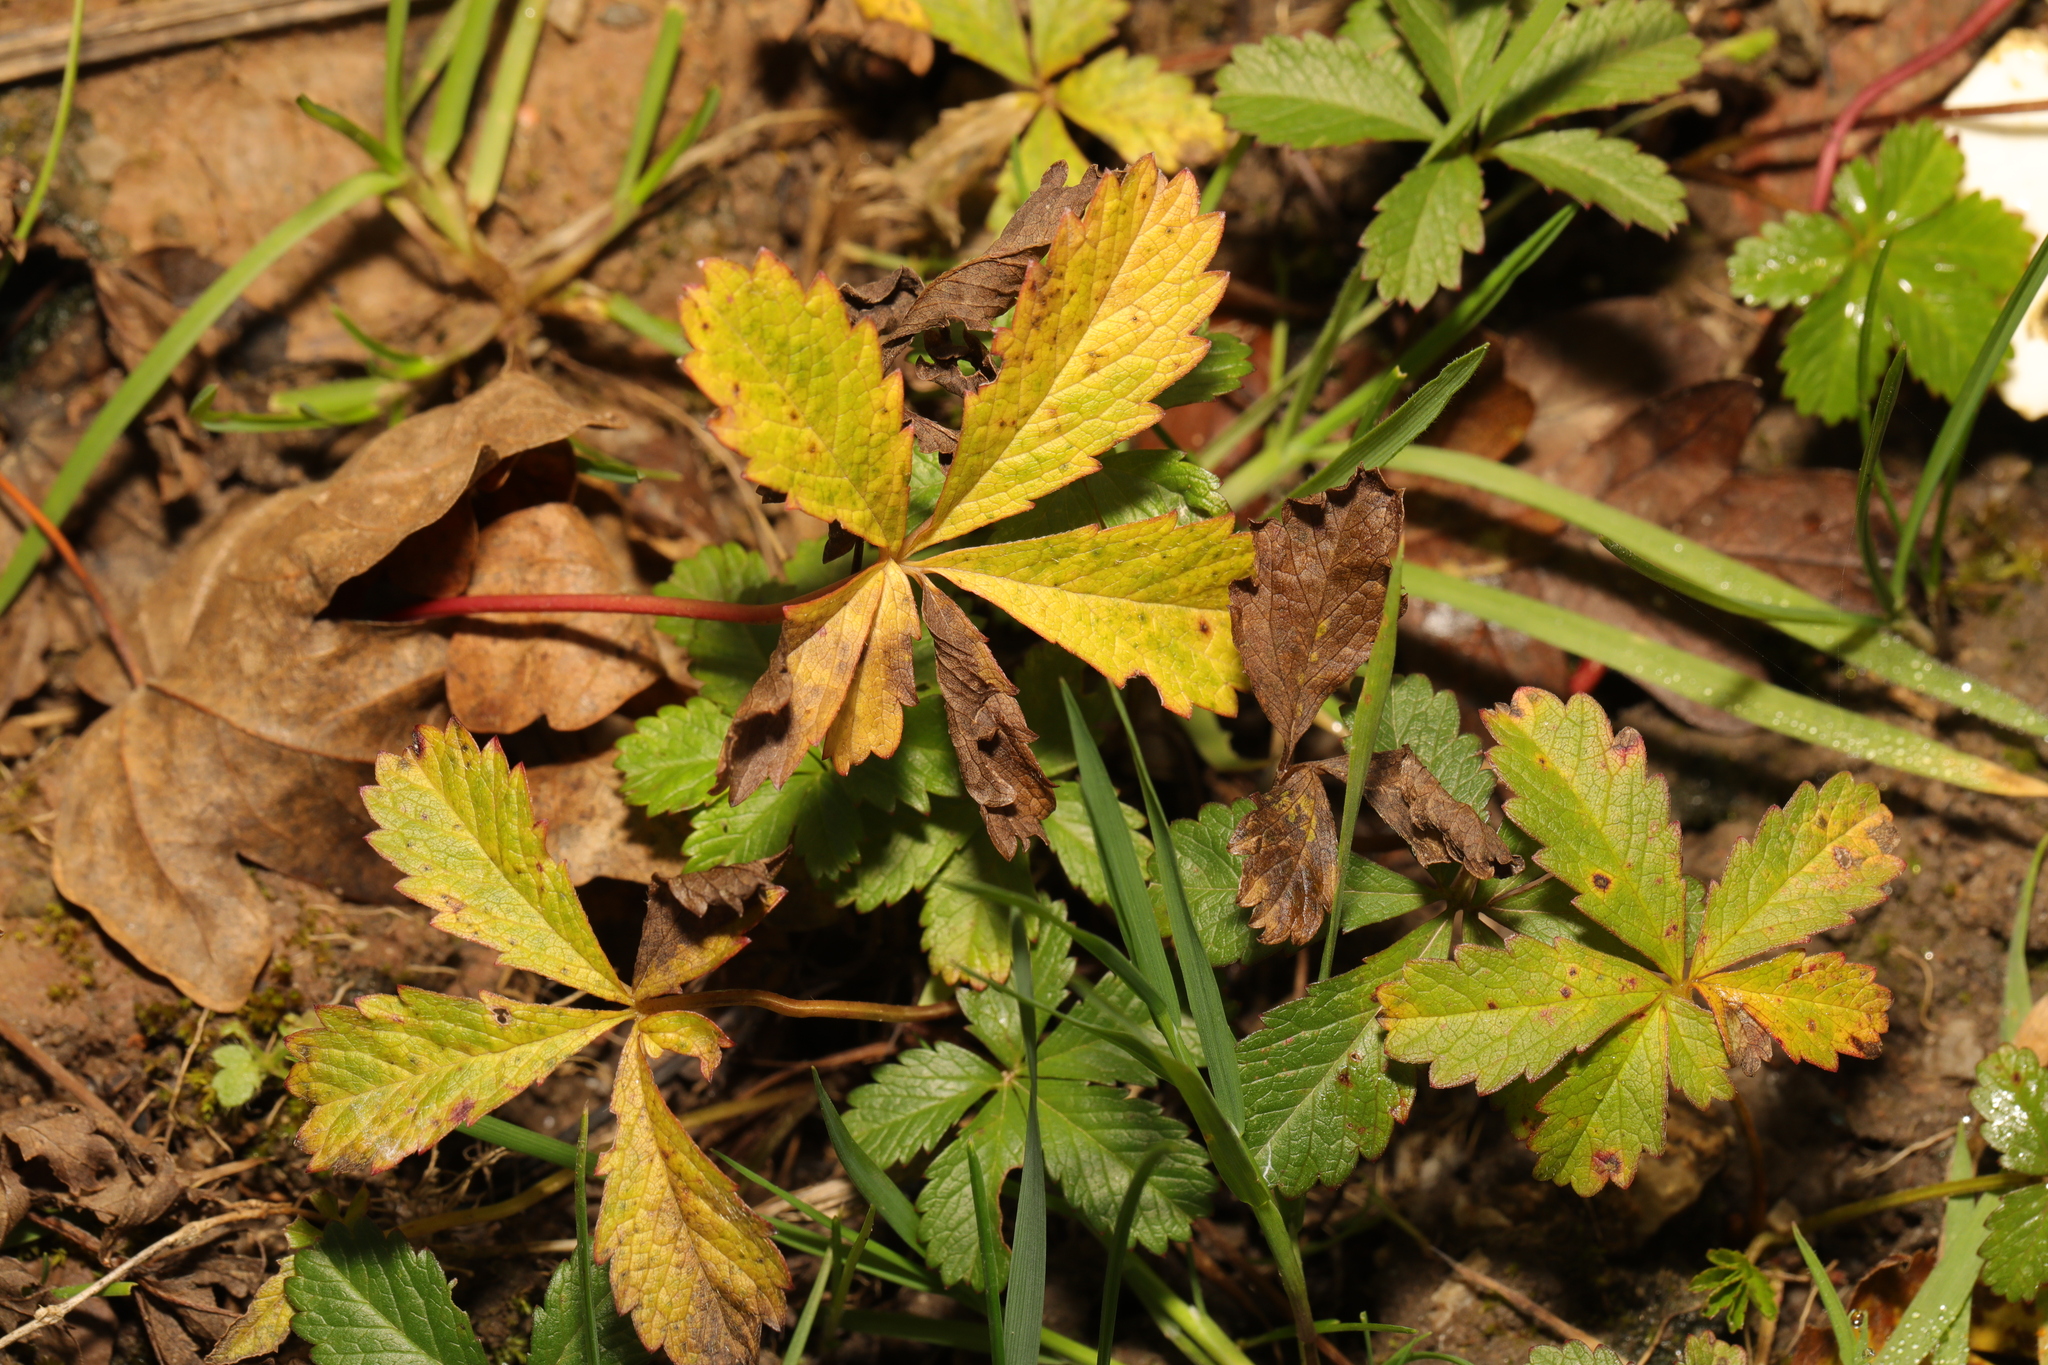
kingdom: Plantae
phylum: Tracheophyta
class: Magnoliopsida
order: Rosales
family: Rosaceae
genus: Potentilla
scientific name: Potentilla reptans
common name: Creeping cinquefoil
